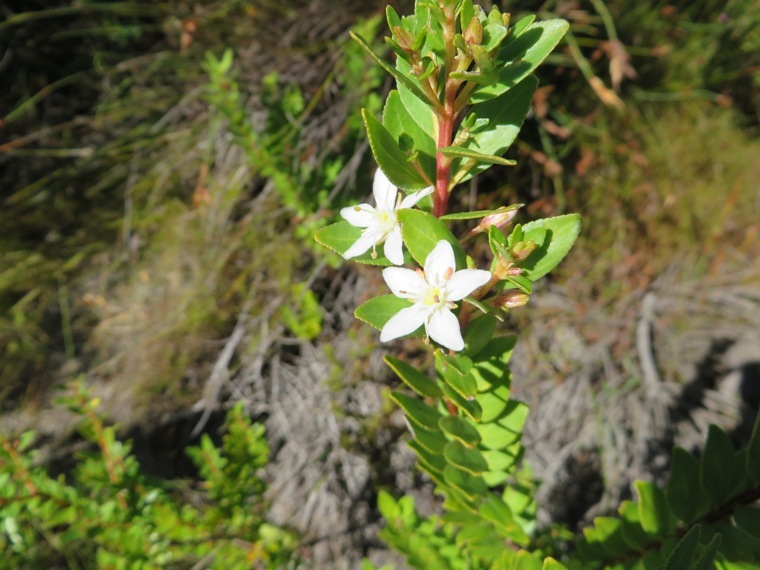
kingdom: Plantae
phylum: Tracheophyta
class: Magnoliopsida
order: Sapindales
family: Rutaceae
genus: Agathosma
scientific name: Agathosma crenulata
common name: Oval buchu
